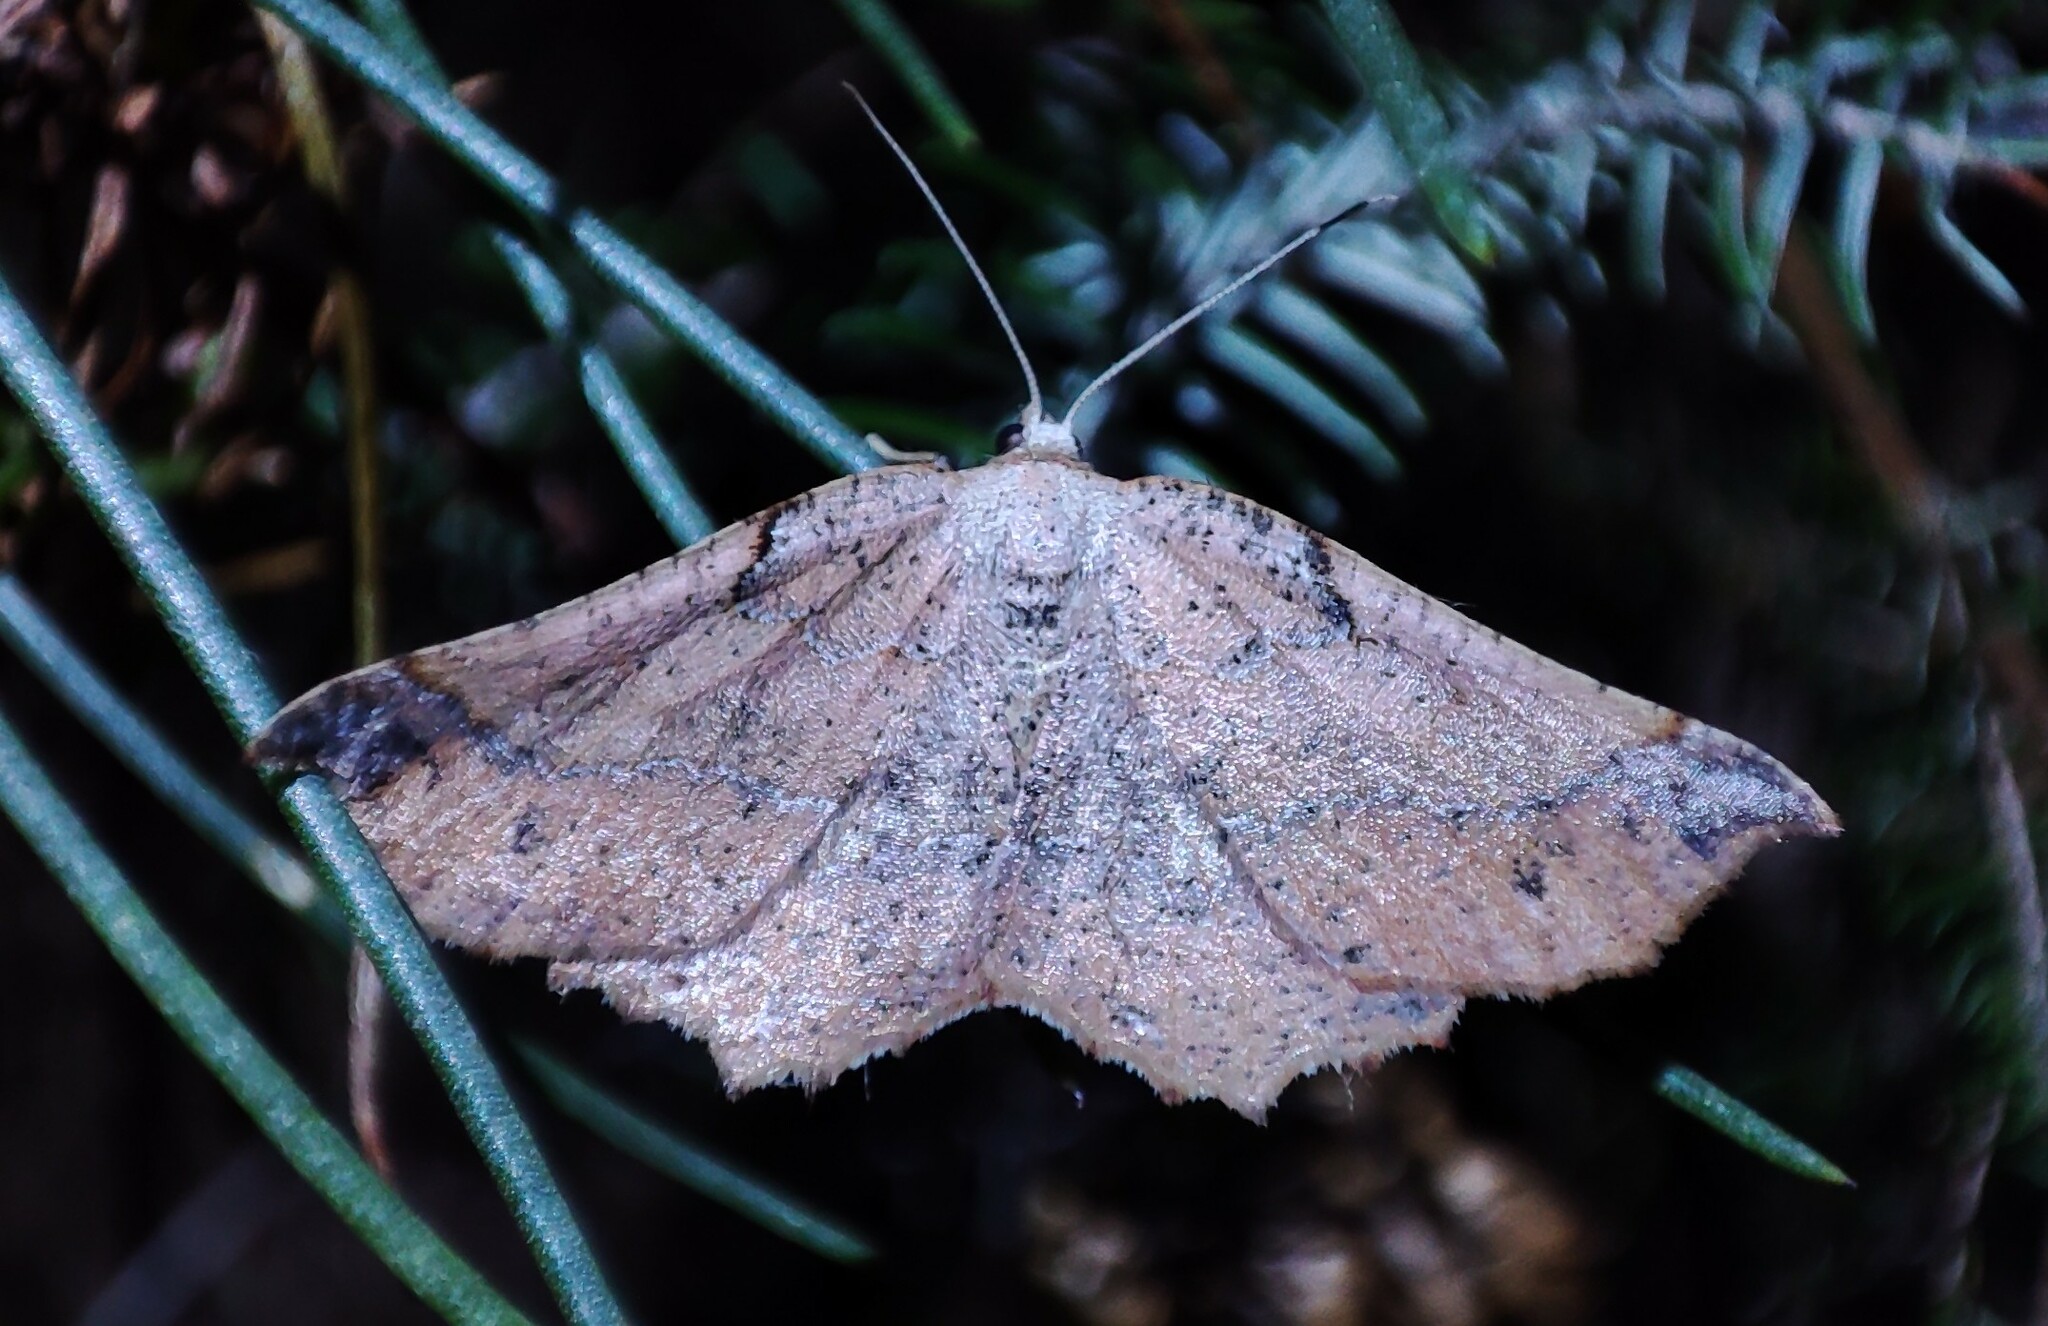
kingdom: Animalia
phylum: Arthropoda
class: Insecta
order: Lepidoptera
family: Geometridae
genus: Drepanogynis
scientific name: Drepanogynis mixtaria
